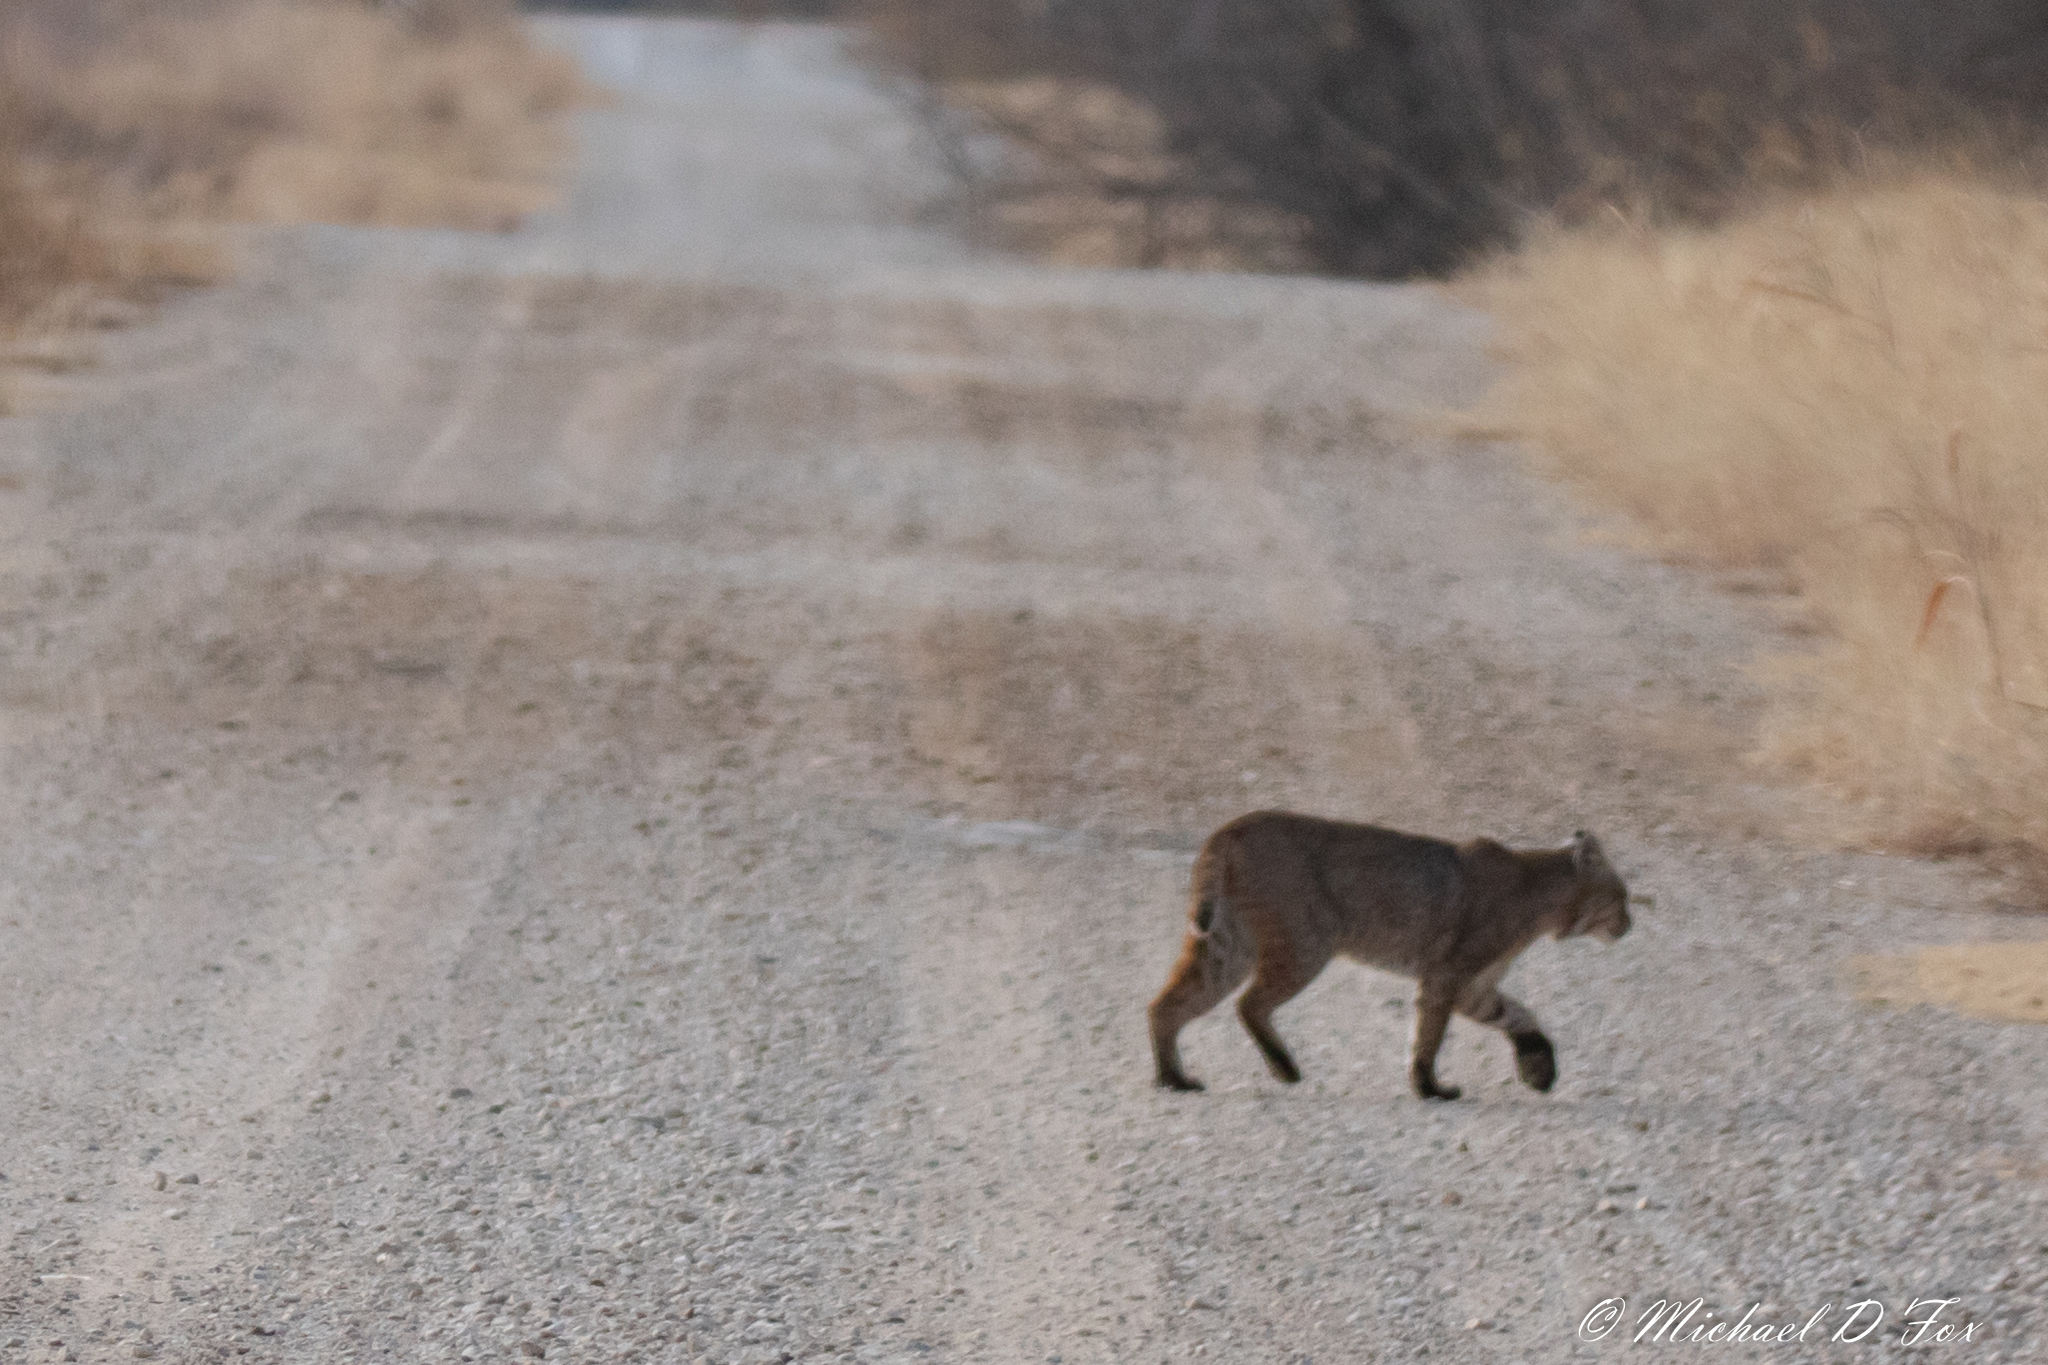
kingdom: Animalia
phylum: Chordata
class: Mammalia
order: Carnivora
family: Felidae
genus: Lynx
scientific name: Lynx rufus
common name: Bobcat
